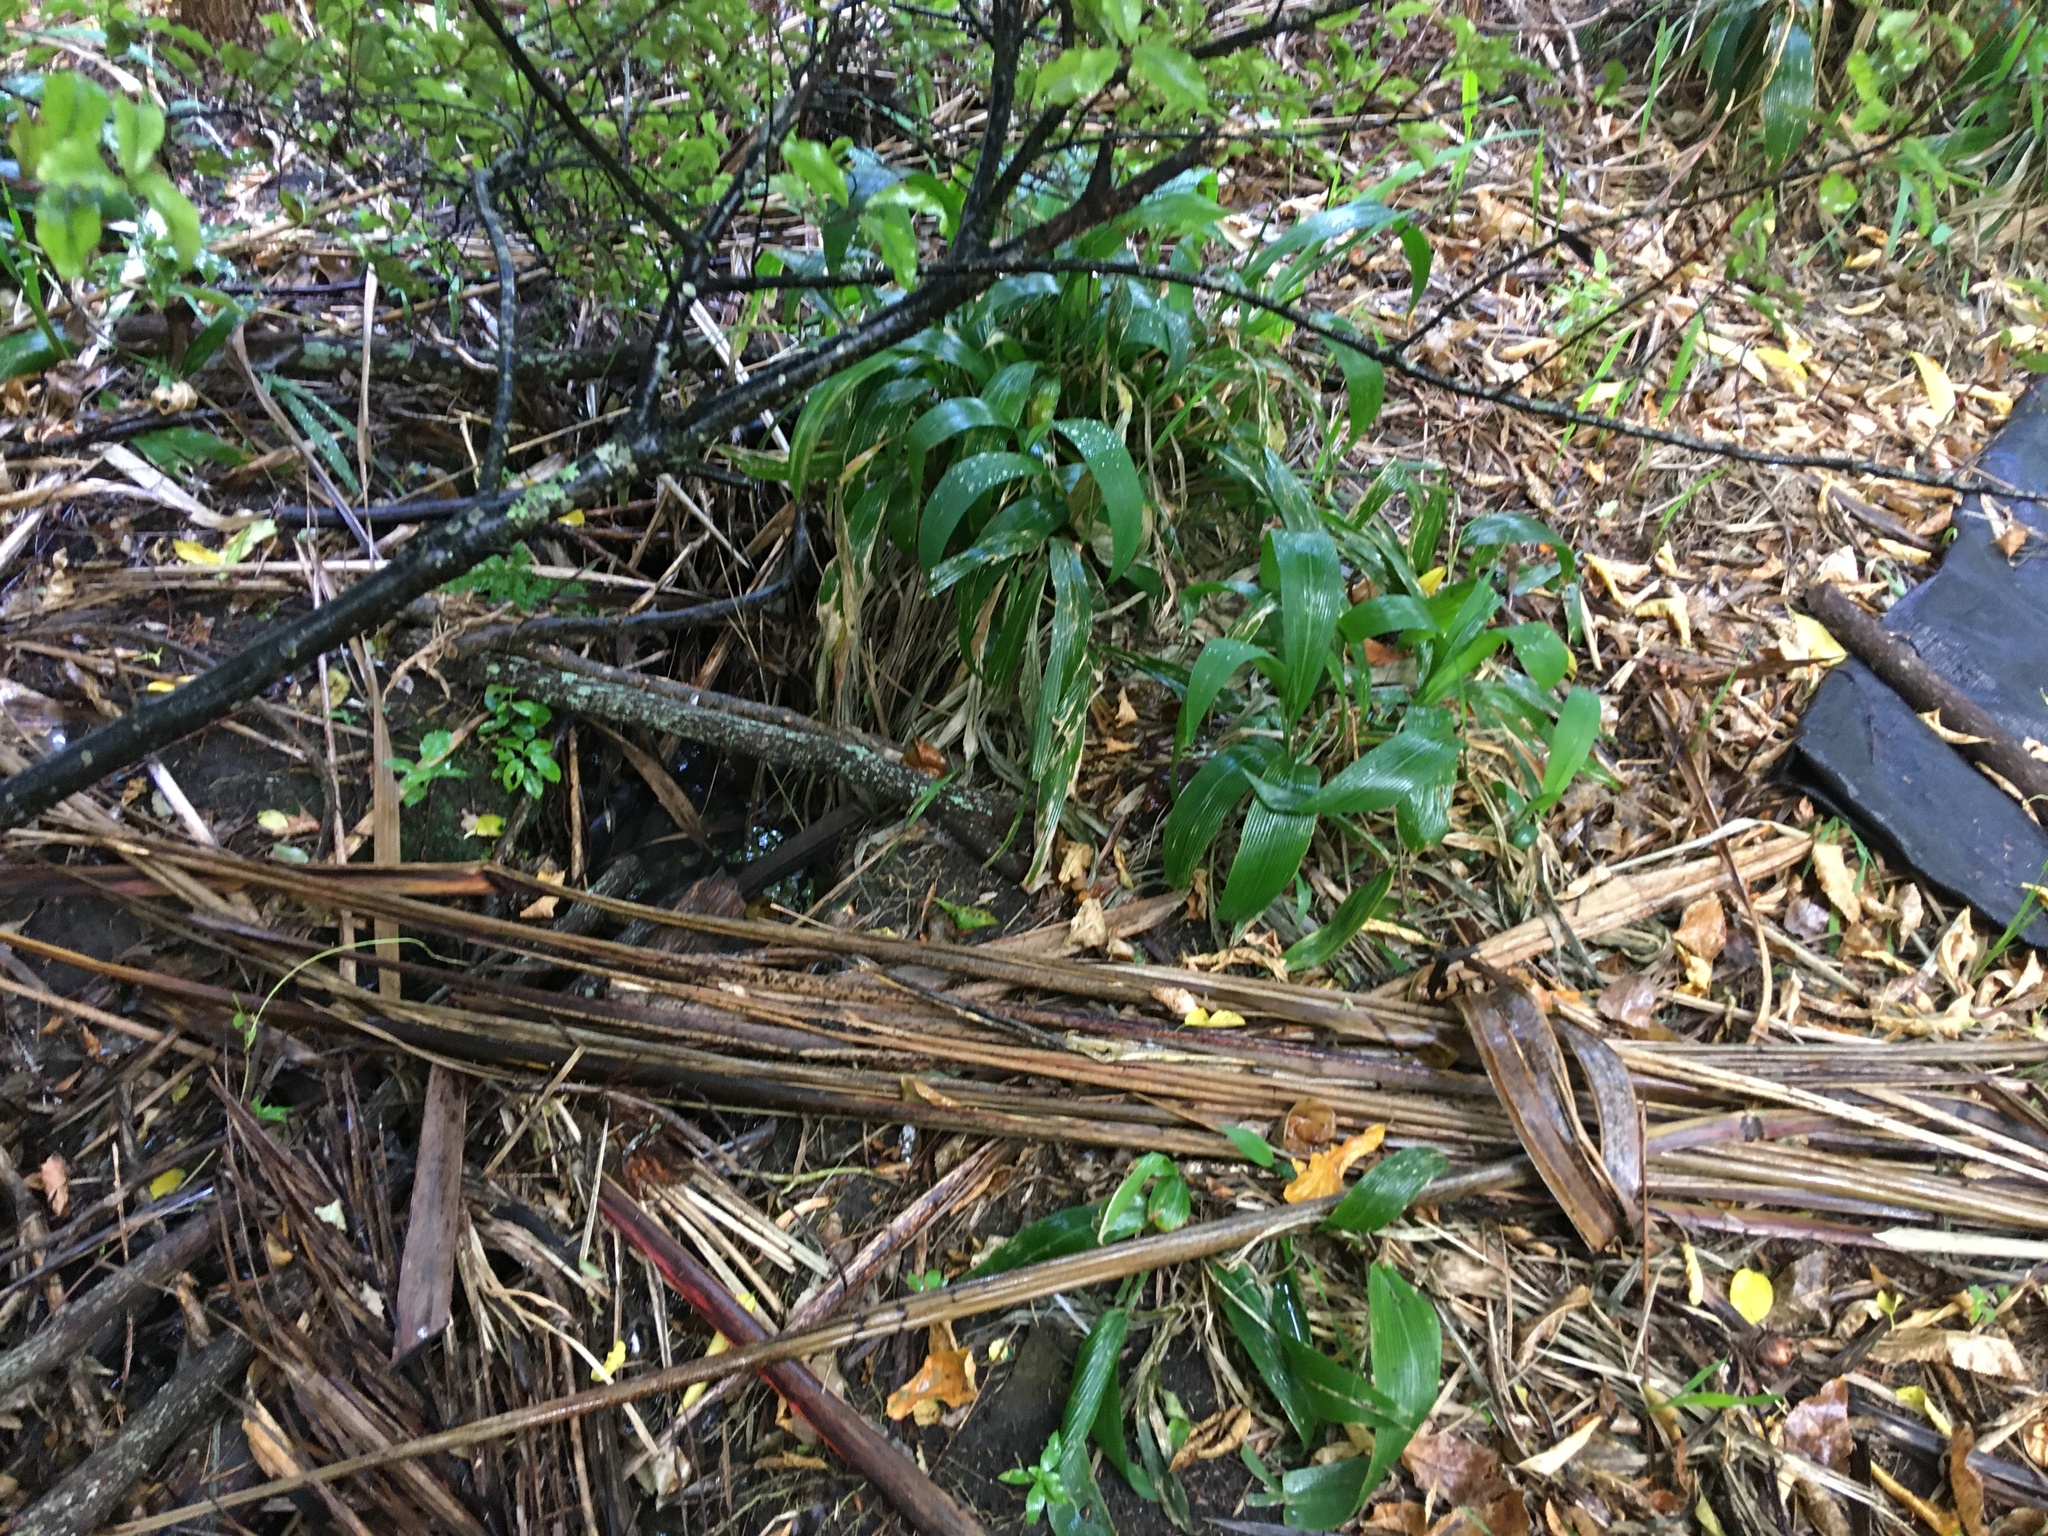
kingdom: Plantae
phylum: Tracheophyta
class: Magnoliopsida
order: Gentianales
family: Rubiaceae
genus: Coprosma
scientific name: Coprosma robusta
